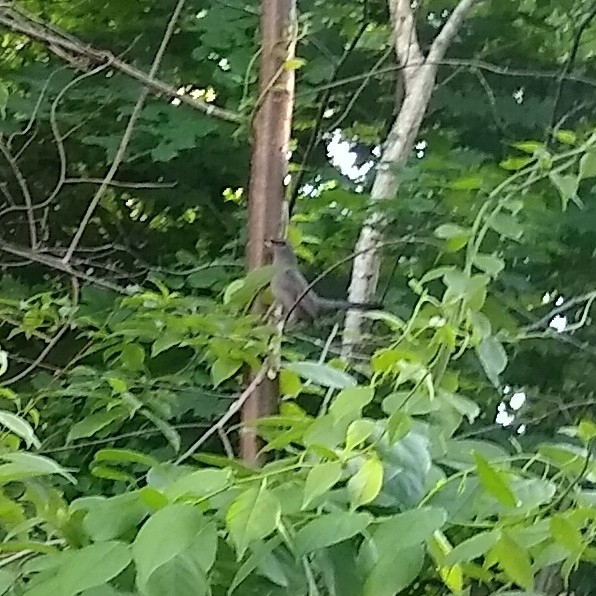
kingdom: Animalia
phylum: Chordata
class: Aves
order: Passeriformes
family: Mimidae
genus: Dumetella
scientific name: Dumetella carolinensis
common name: Gray catbird
